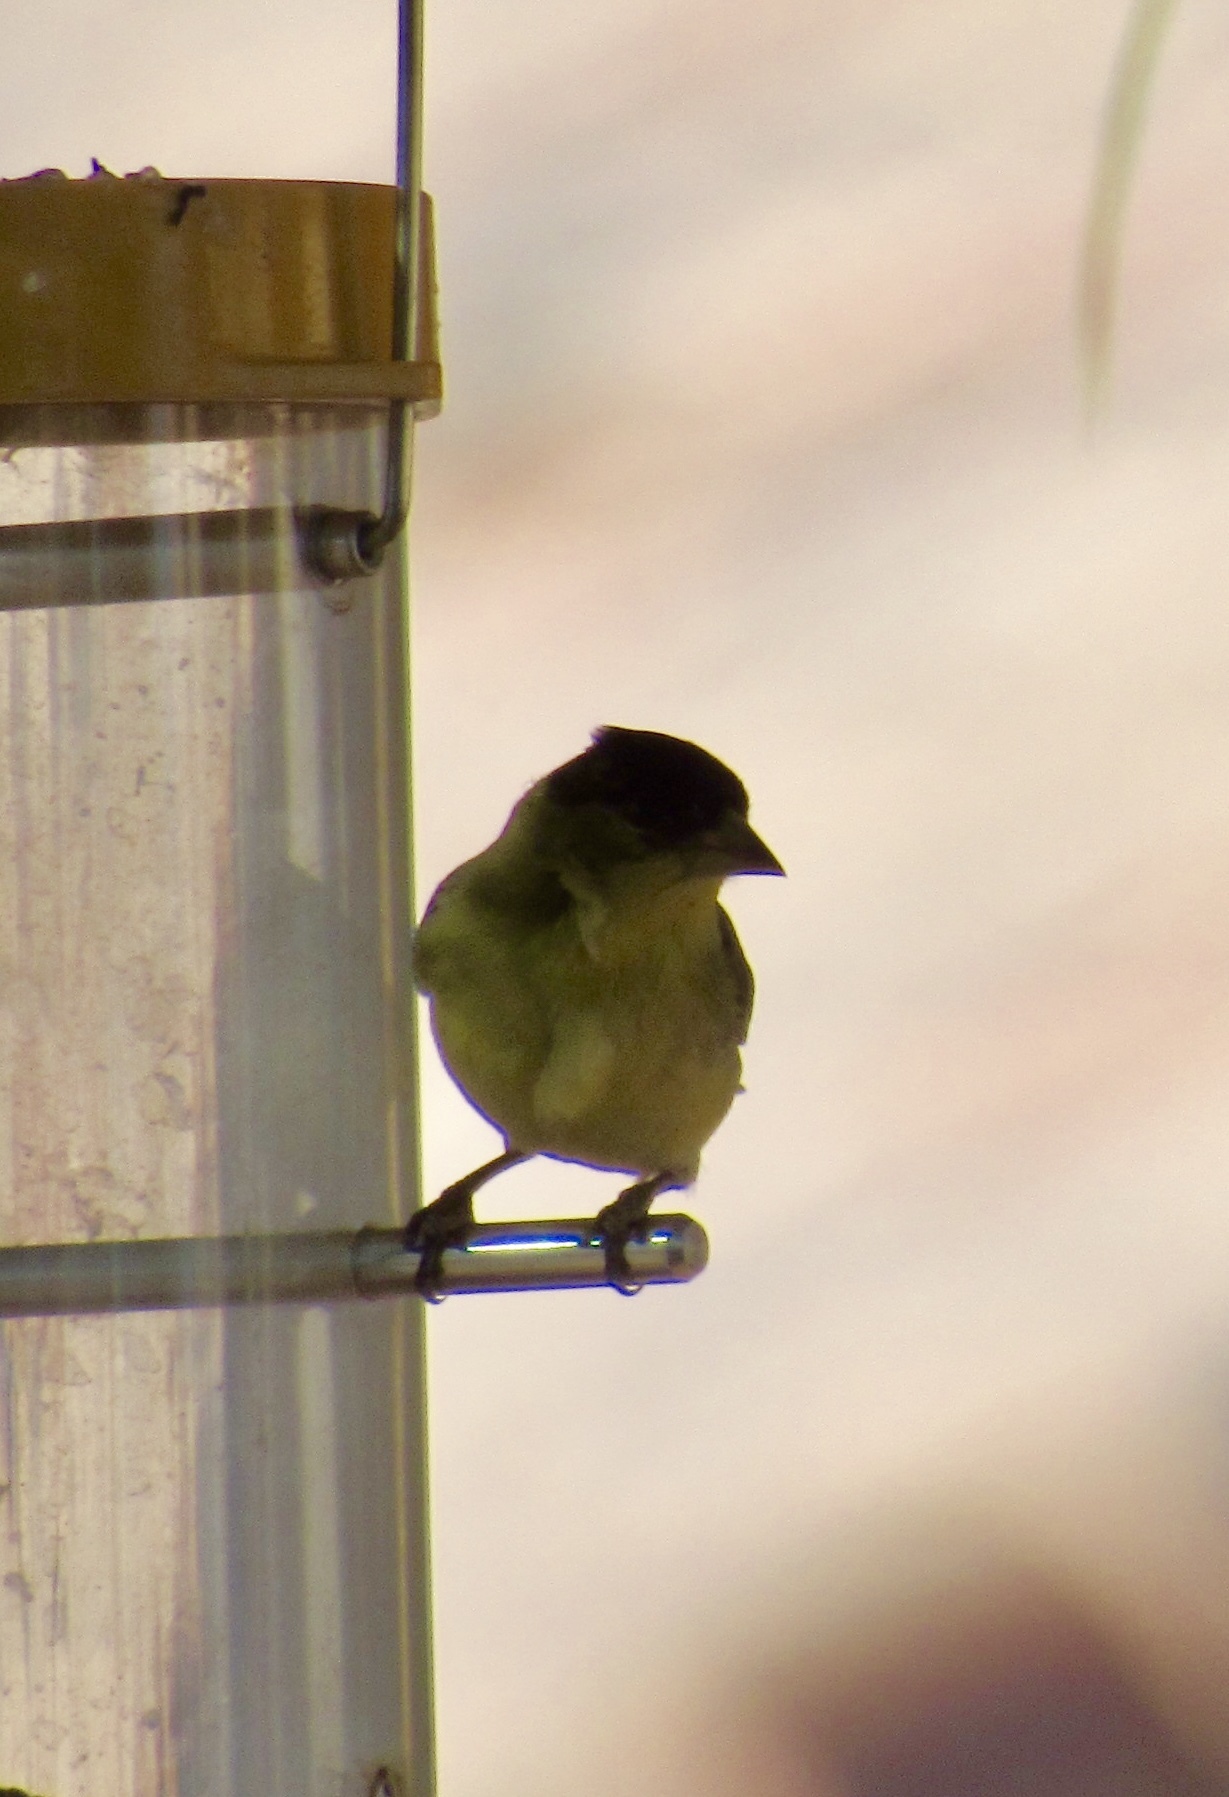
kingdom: Animalia
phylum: Chordata
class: Aves
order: Passeriformes
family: Fringillidae
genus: Spinus
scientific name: Spinus psaltria
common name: Lesser goldfinch
